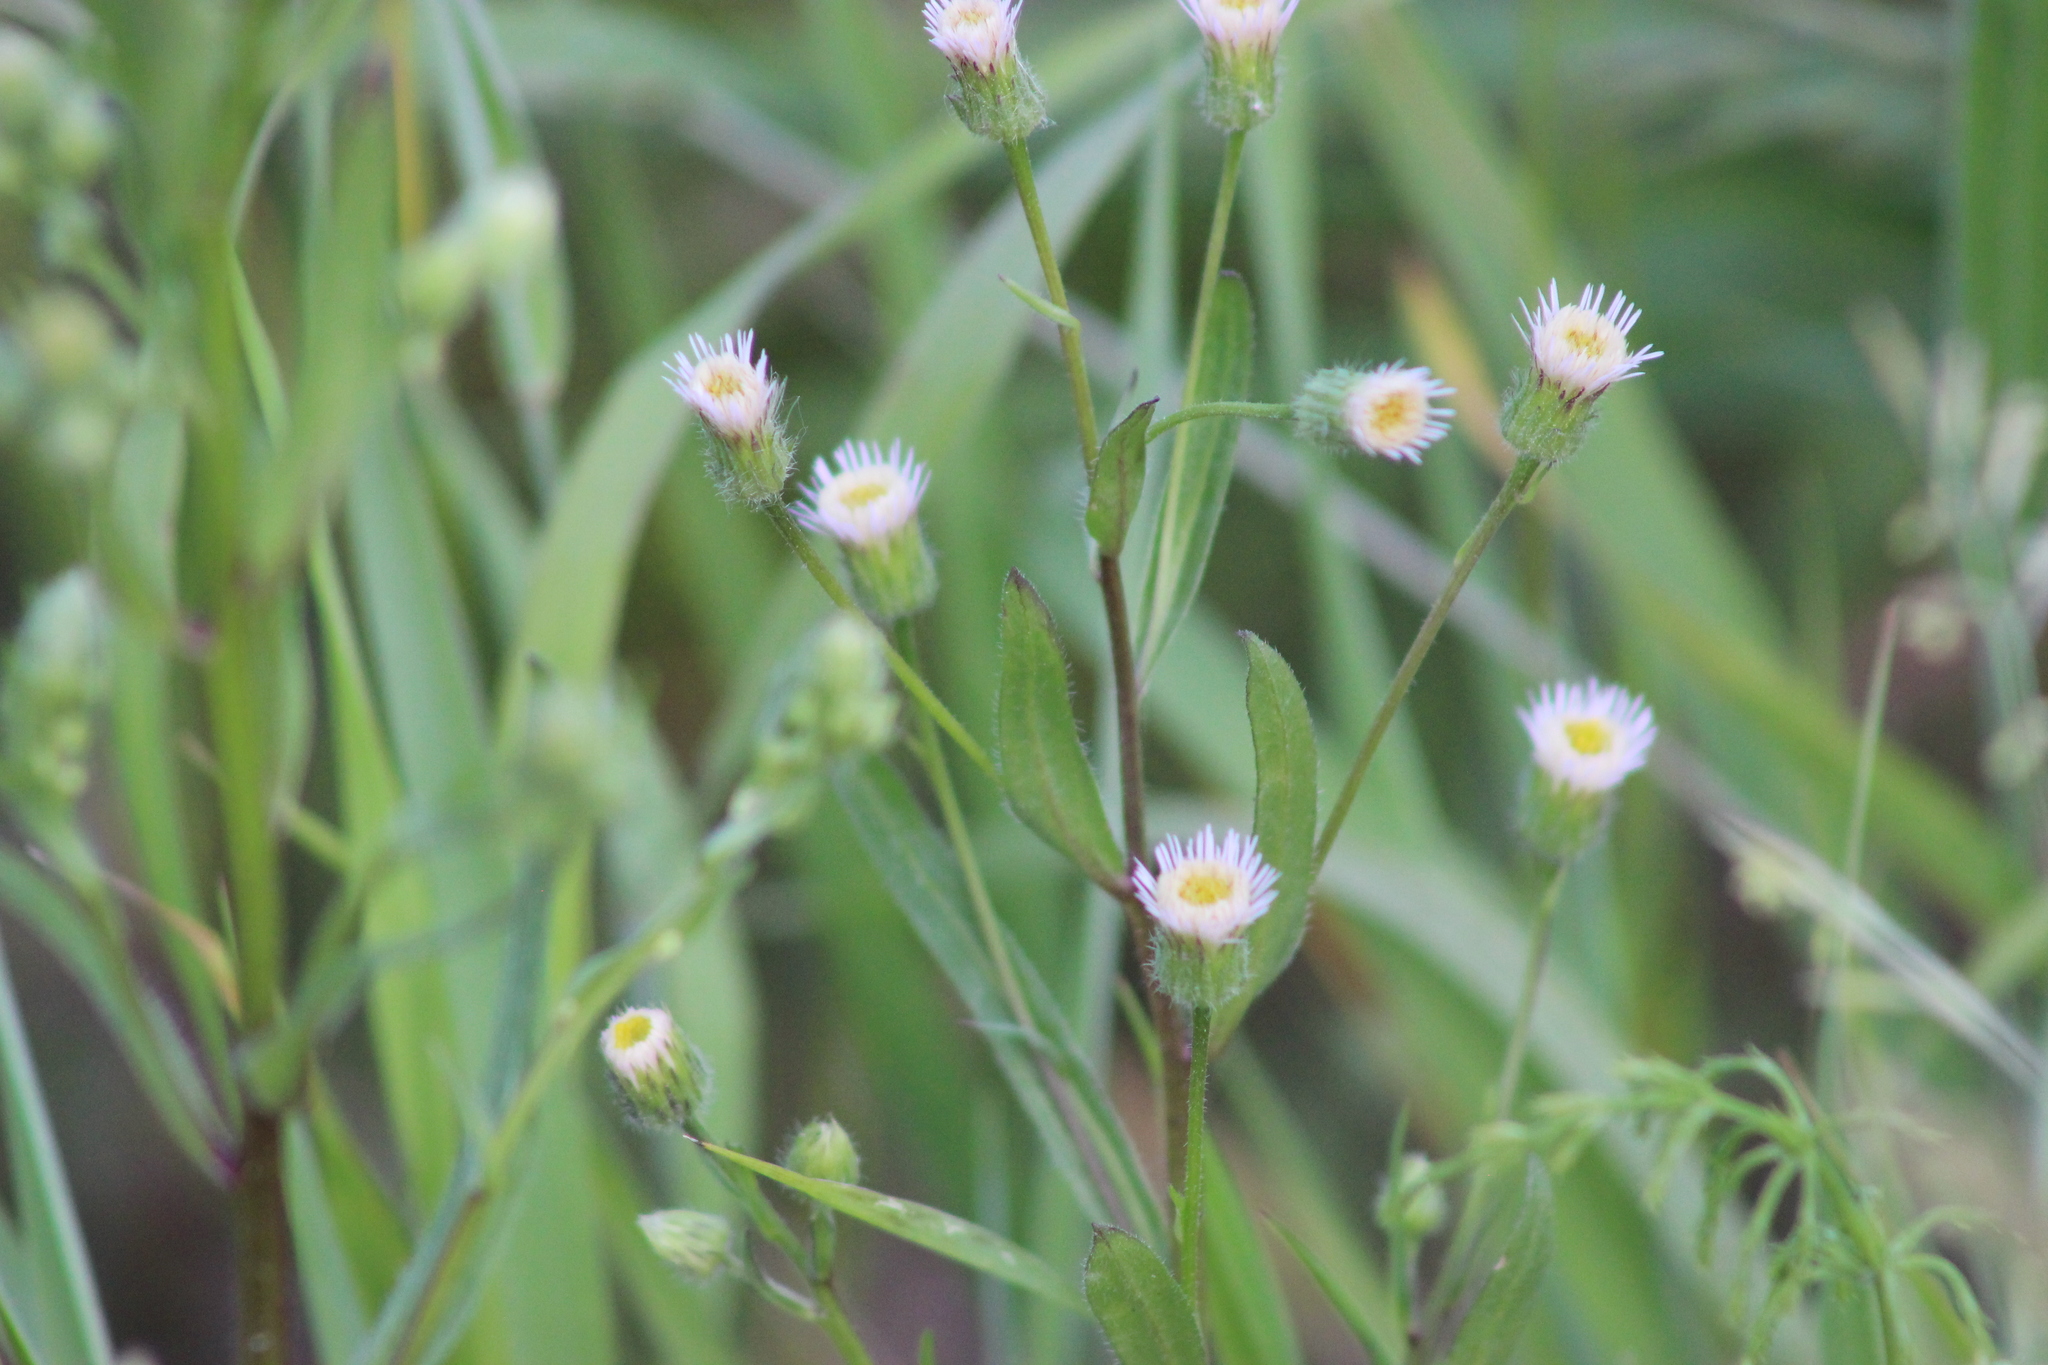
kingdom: Plantae
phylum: Tracheophyta
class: Magnoliopsida
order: Asterales
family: Asteraceae
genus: Erigeron
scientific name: Erigeron acris
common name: Blue fleabane
